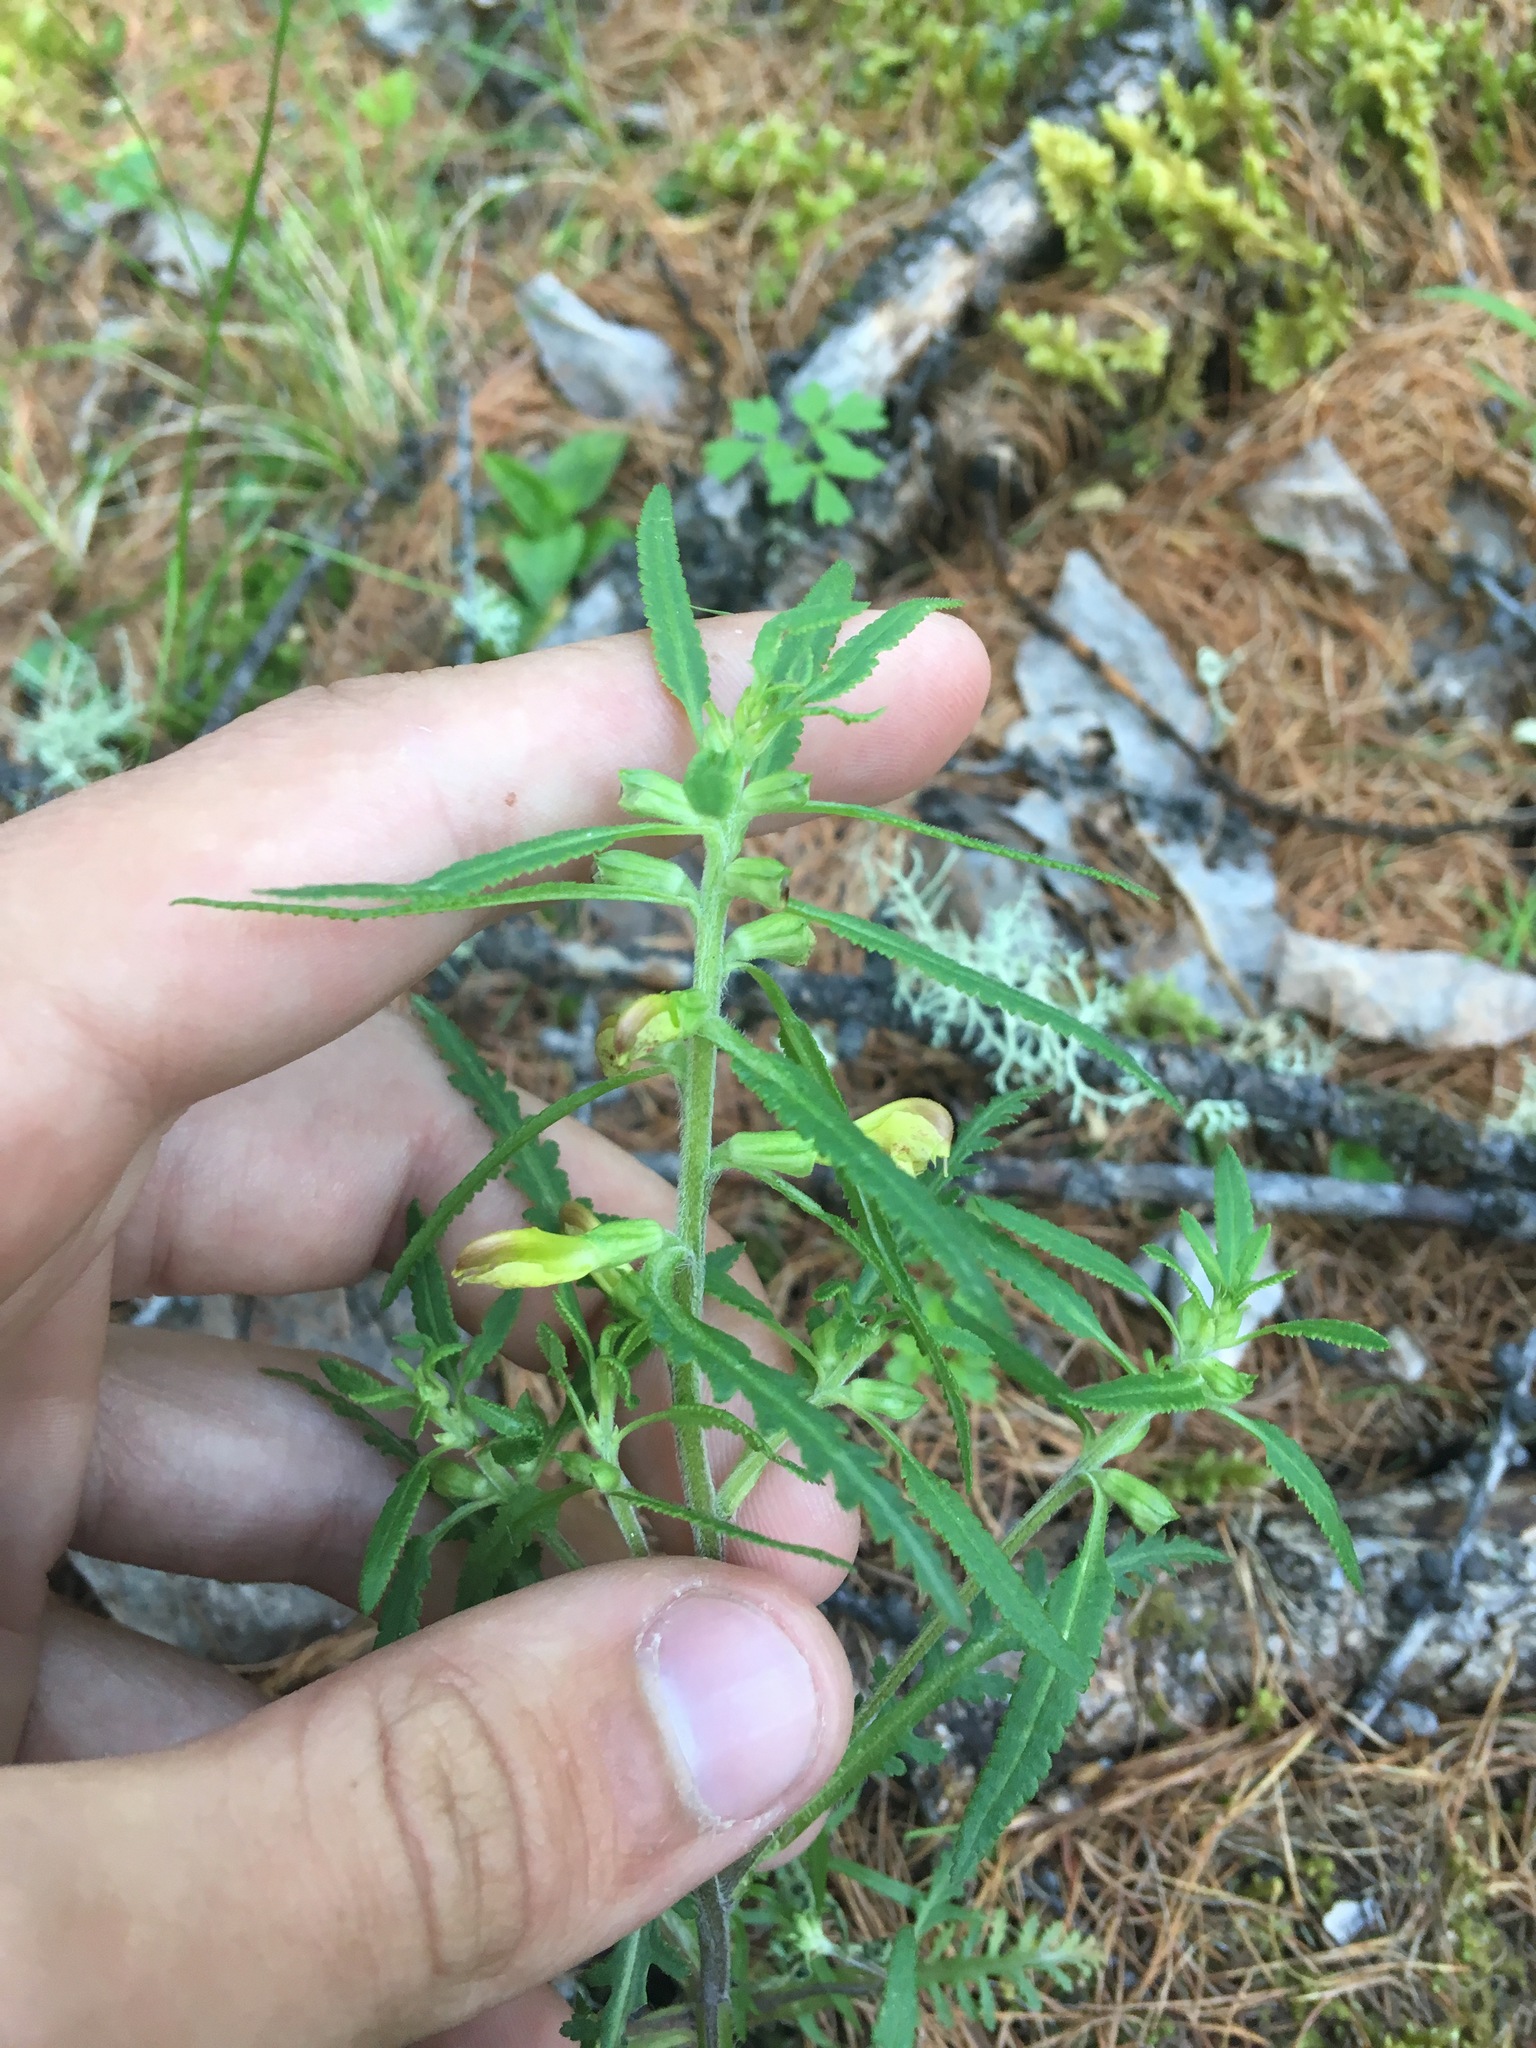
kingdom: Plantae
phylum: Tracheophyta
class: Magnoliopsida
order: Lamiales
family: Orobanchaceae
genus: Pedicularis
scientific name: Pedicularis labradorica
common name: Labrador lousewort
